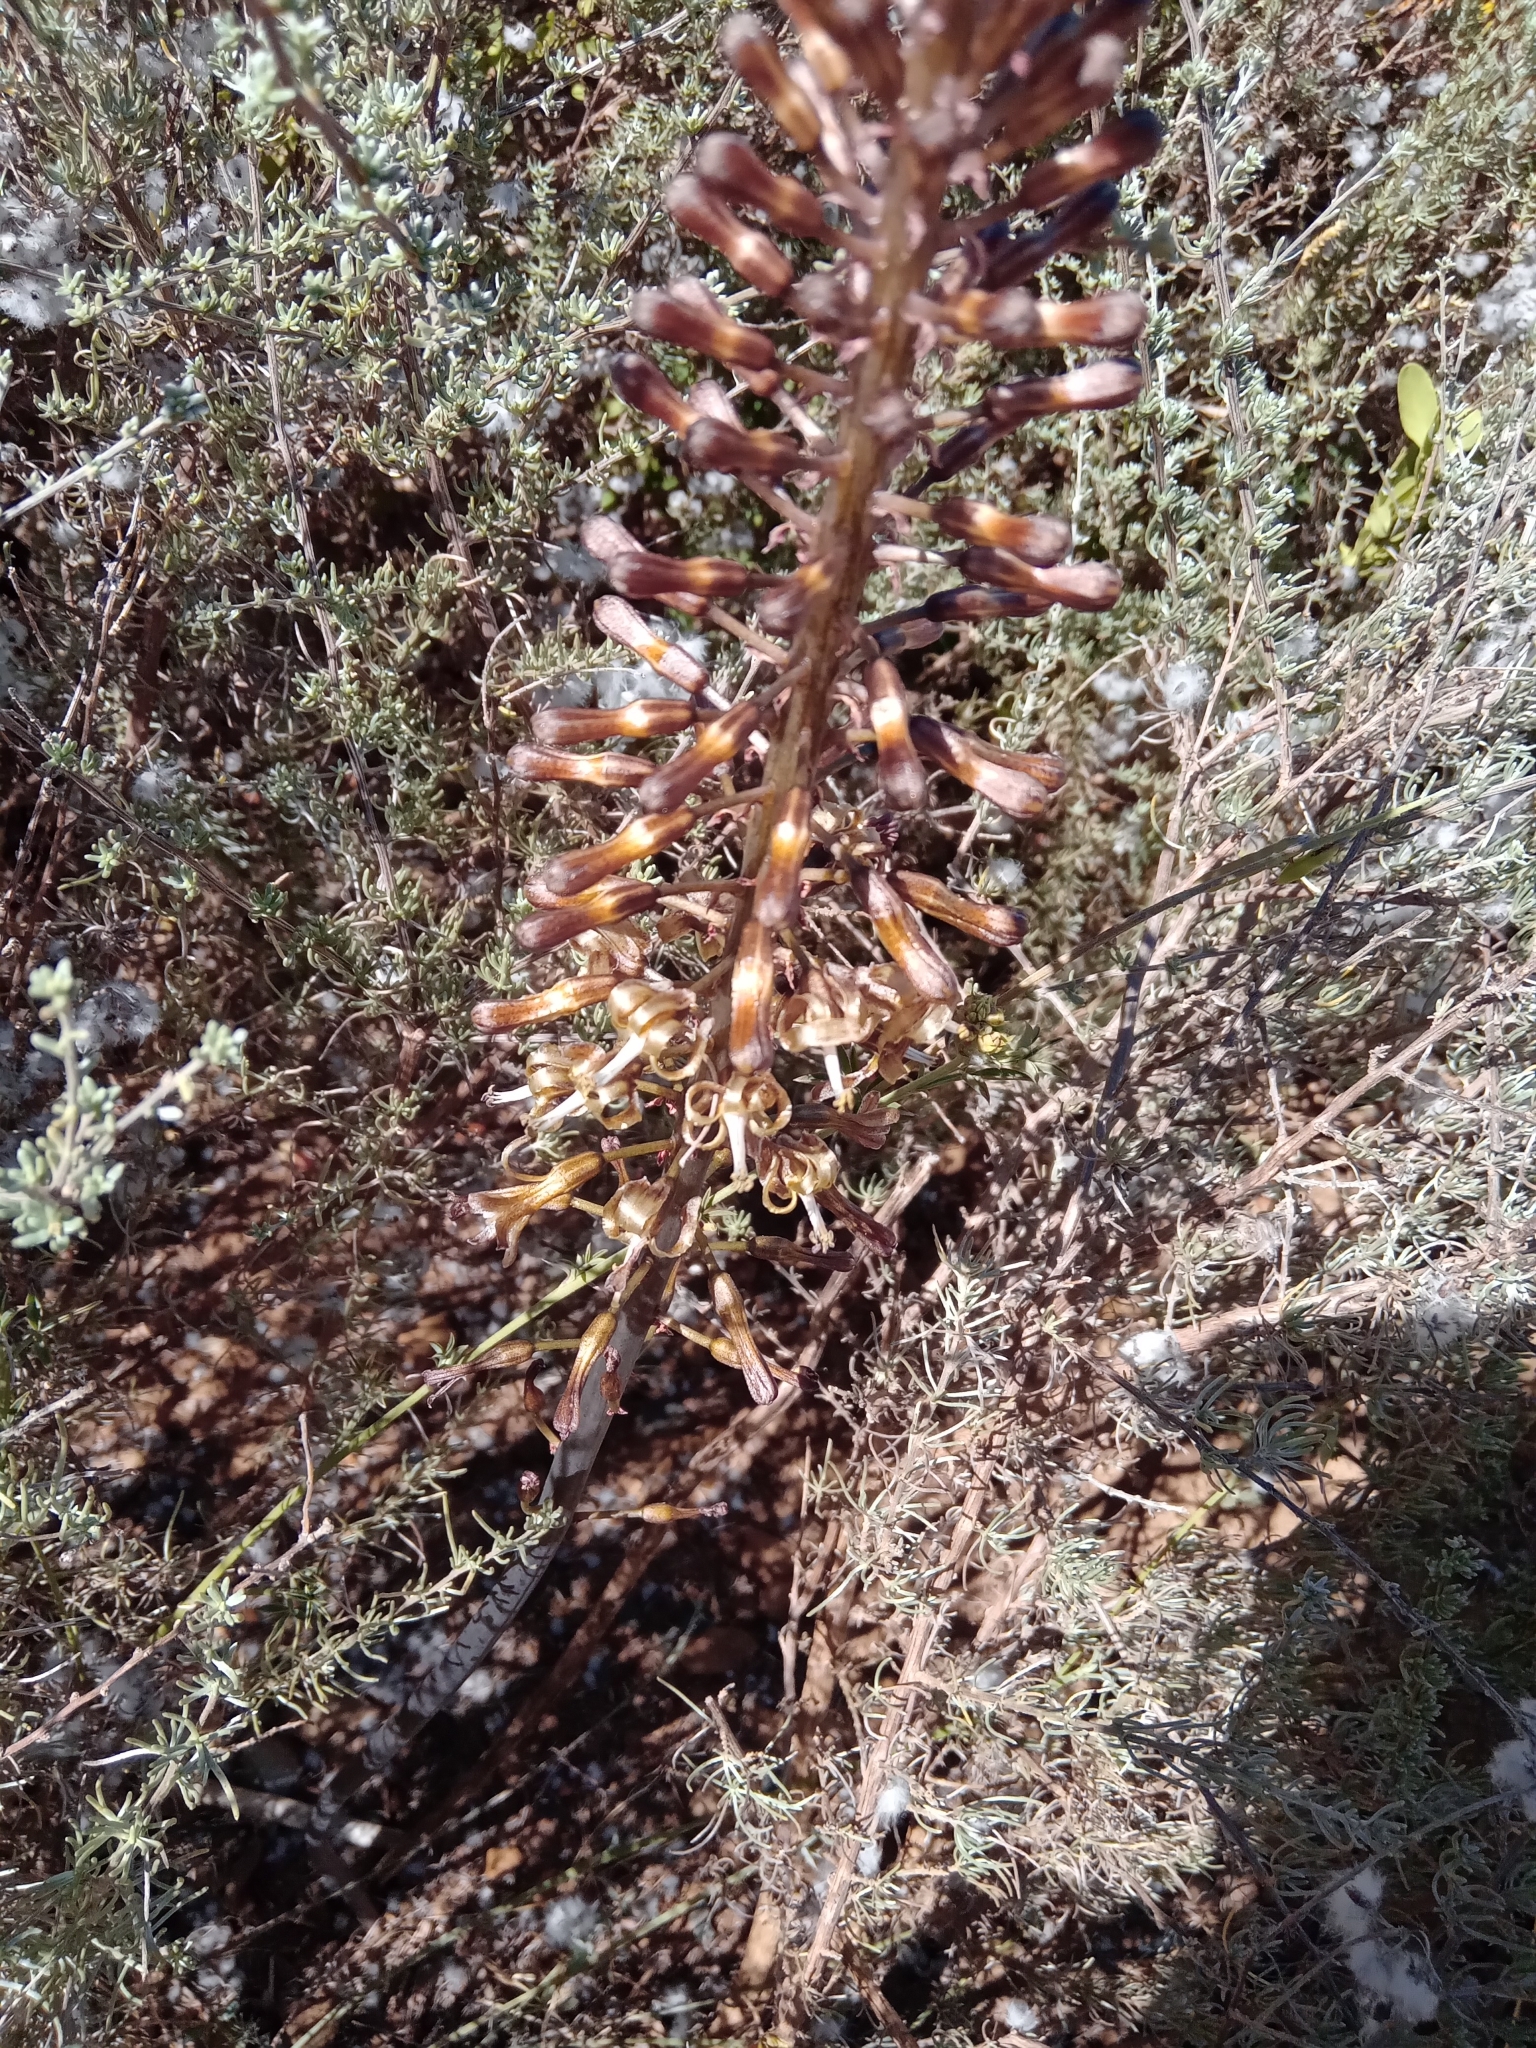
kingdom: Plantae
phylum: Tracheophyta
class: Liliopsida
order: Asparagales
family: Asparagaceae
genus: Drimia
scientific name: Drimia elata
